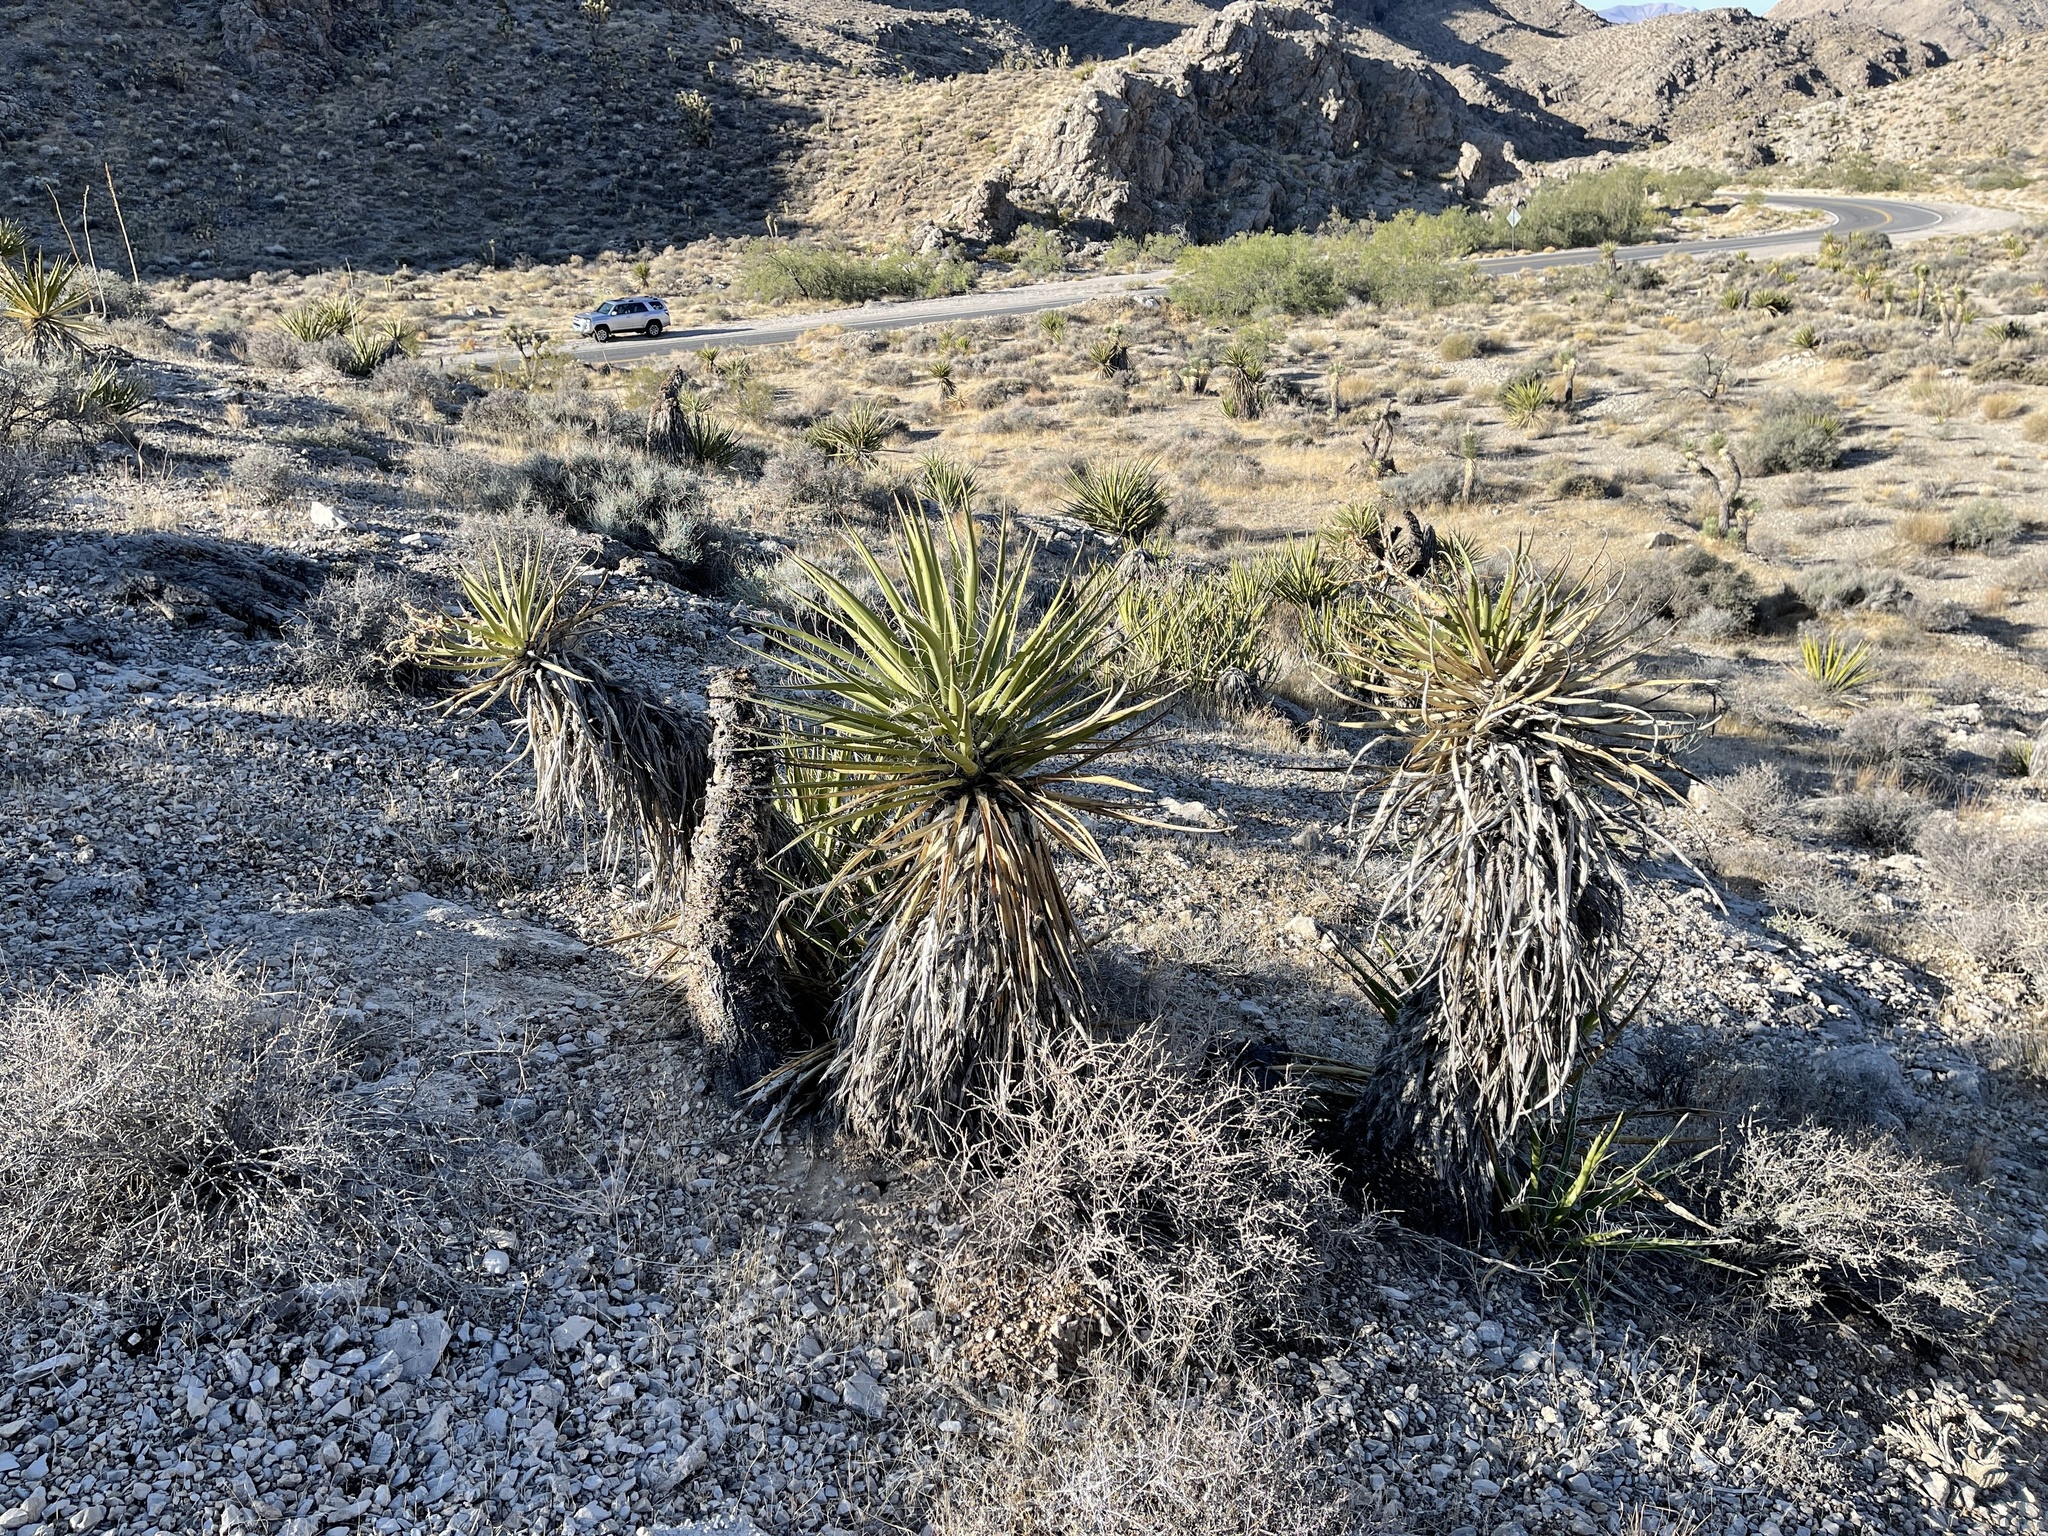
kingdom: Plantae
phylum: Tracheophyta
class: Liliopsida
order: Asparagales
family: Asparagaceae
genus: Yucca
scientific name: Yucca schidigera
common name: Mojave yucca
